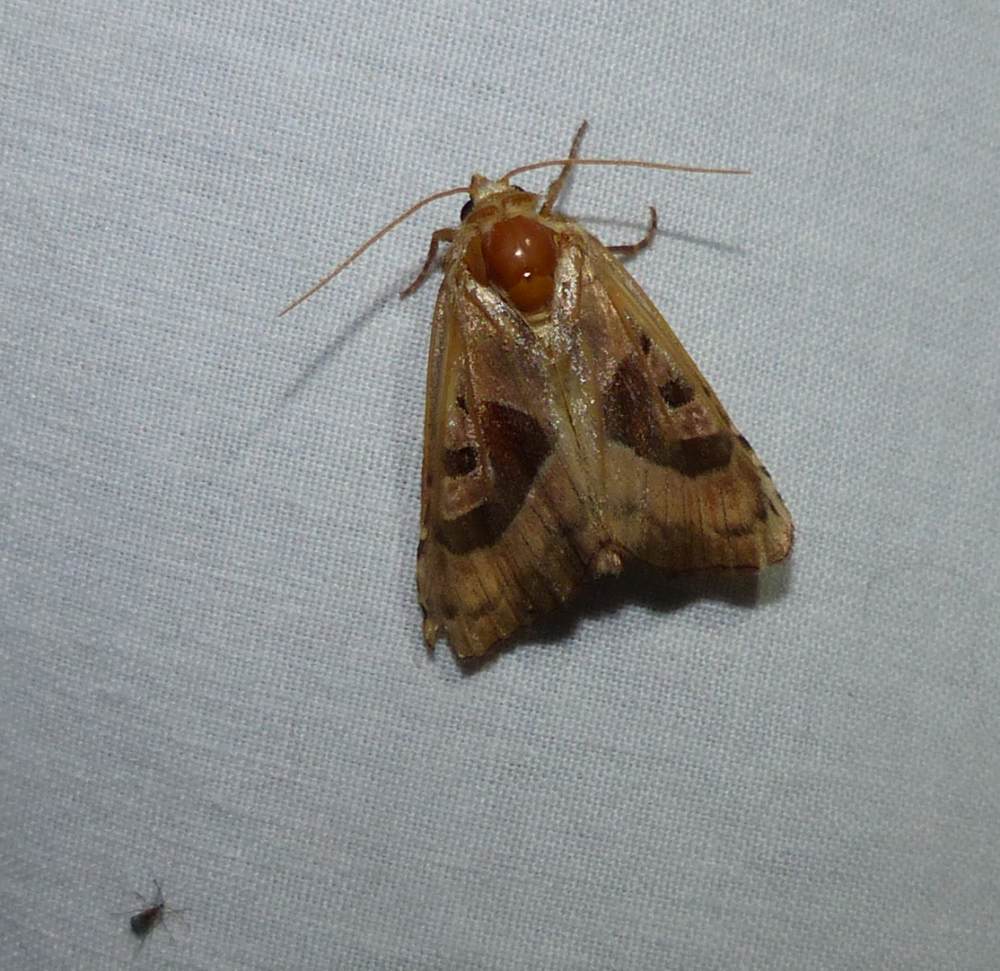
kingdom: Animalia
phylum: Arthropoda
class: Insecta
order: Lepidoptera
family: Noctuidae
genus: Conservula
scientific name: Conservula anodonta
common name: Sharp angle shades
